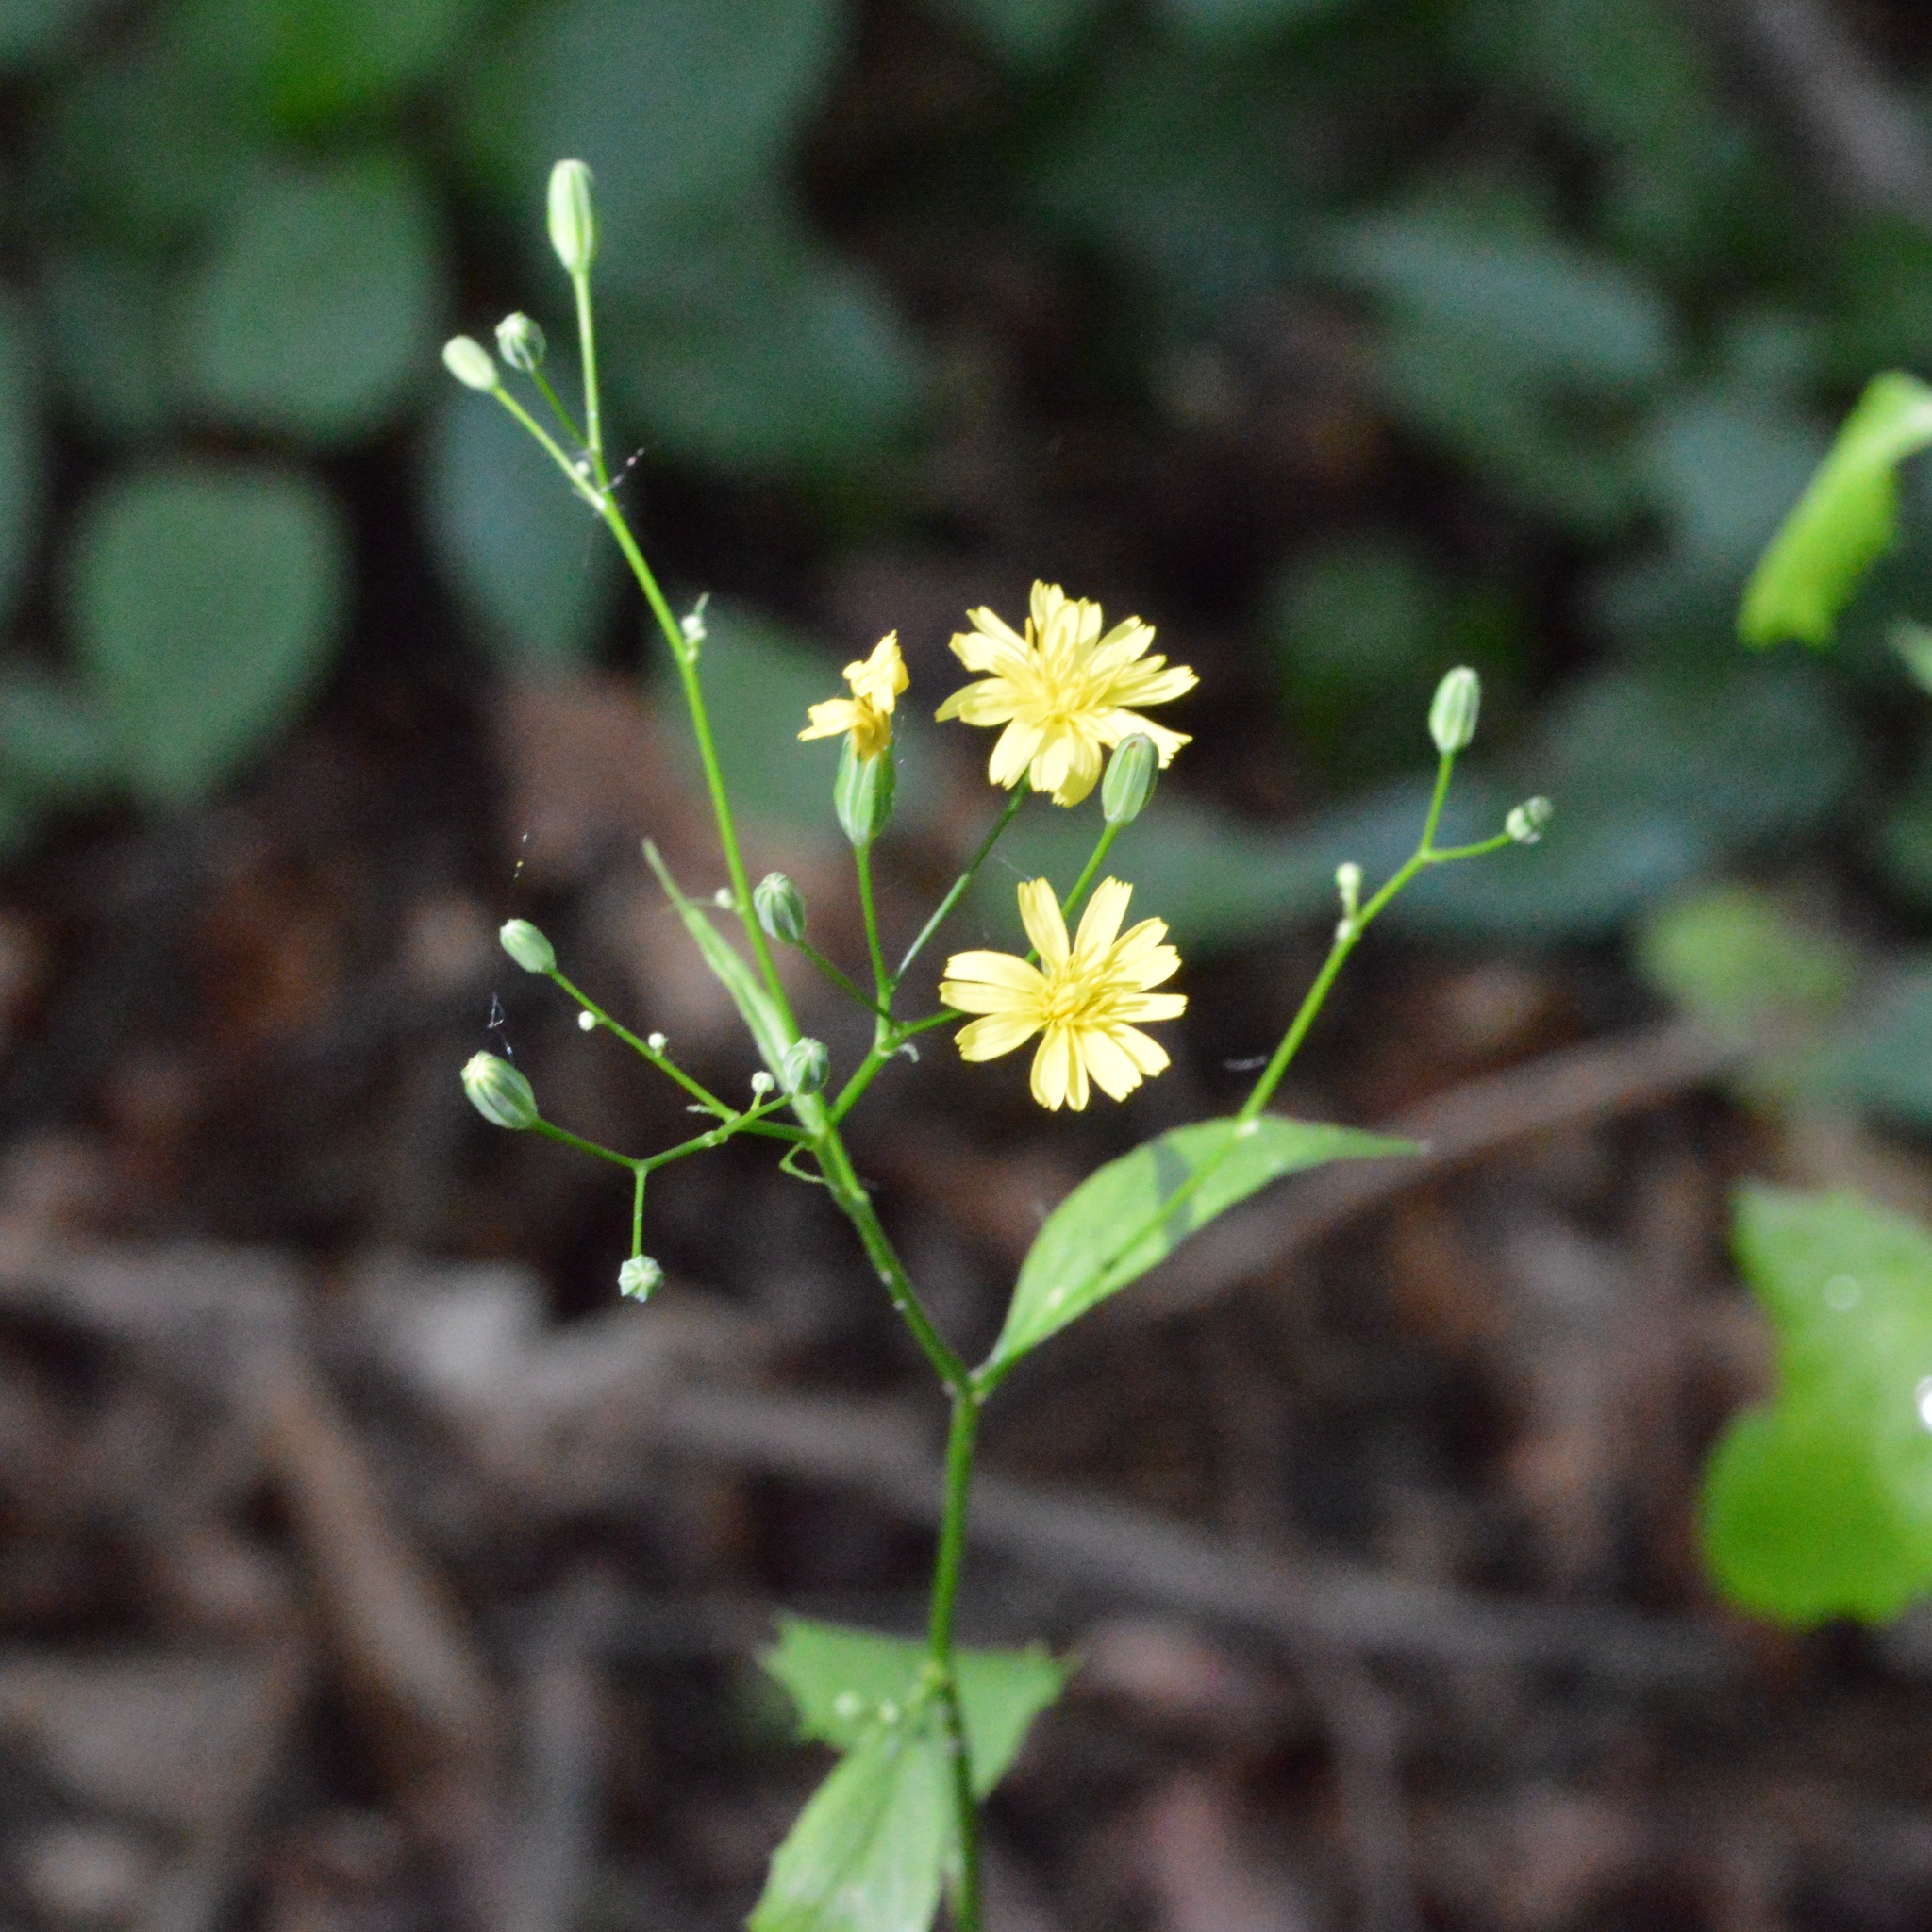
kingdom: Plantae
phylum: Tracheophyta
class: Magnoliopsida
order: Asterales
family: Asteraceae
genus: Lapsana
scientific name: Lapsana communis
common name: Nipplewort
